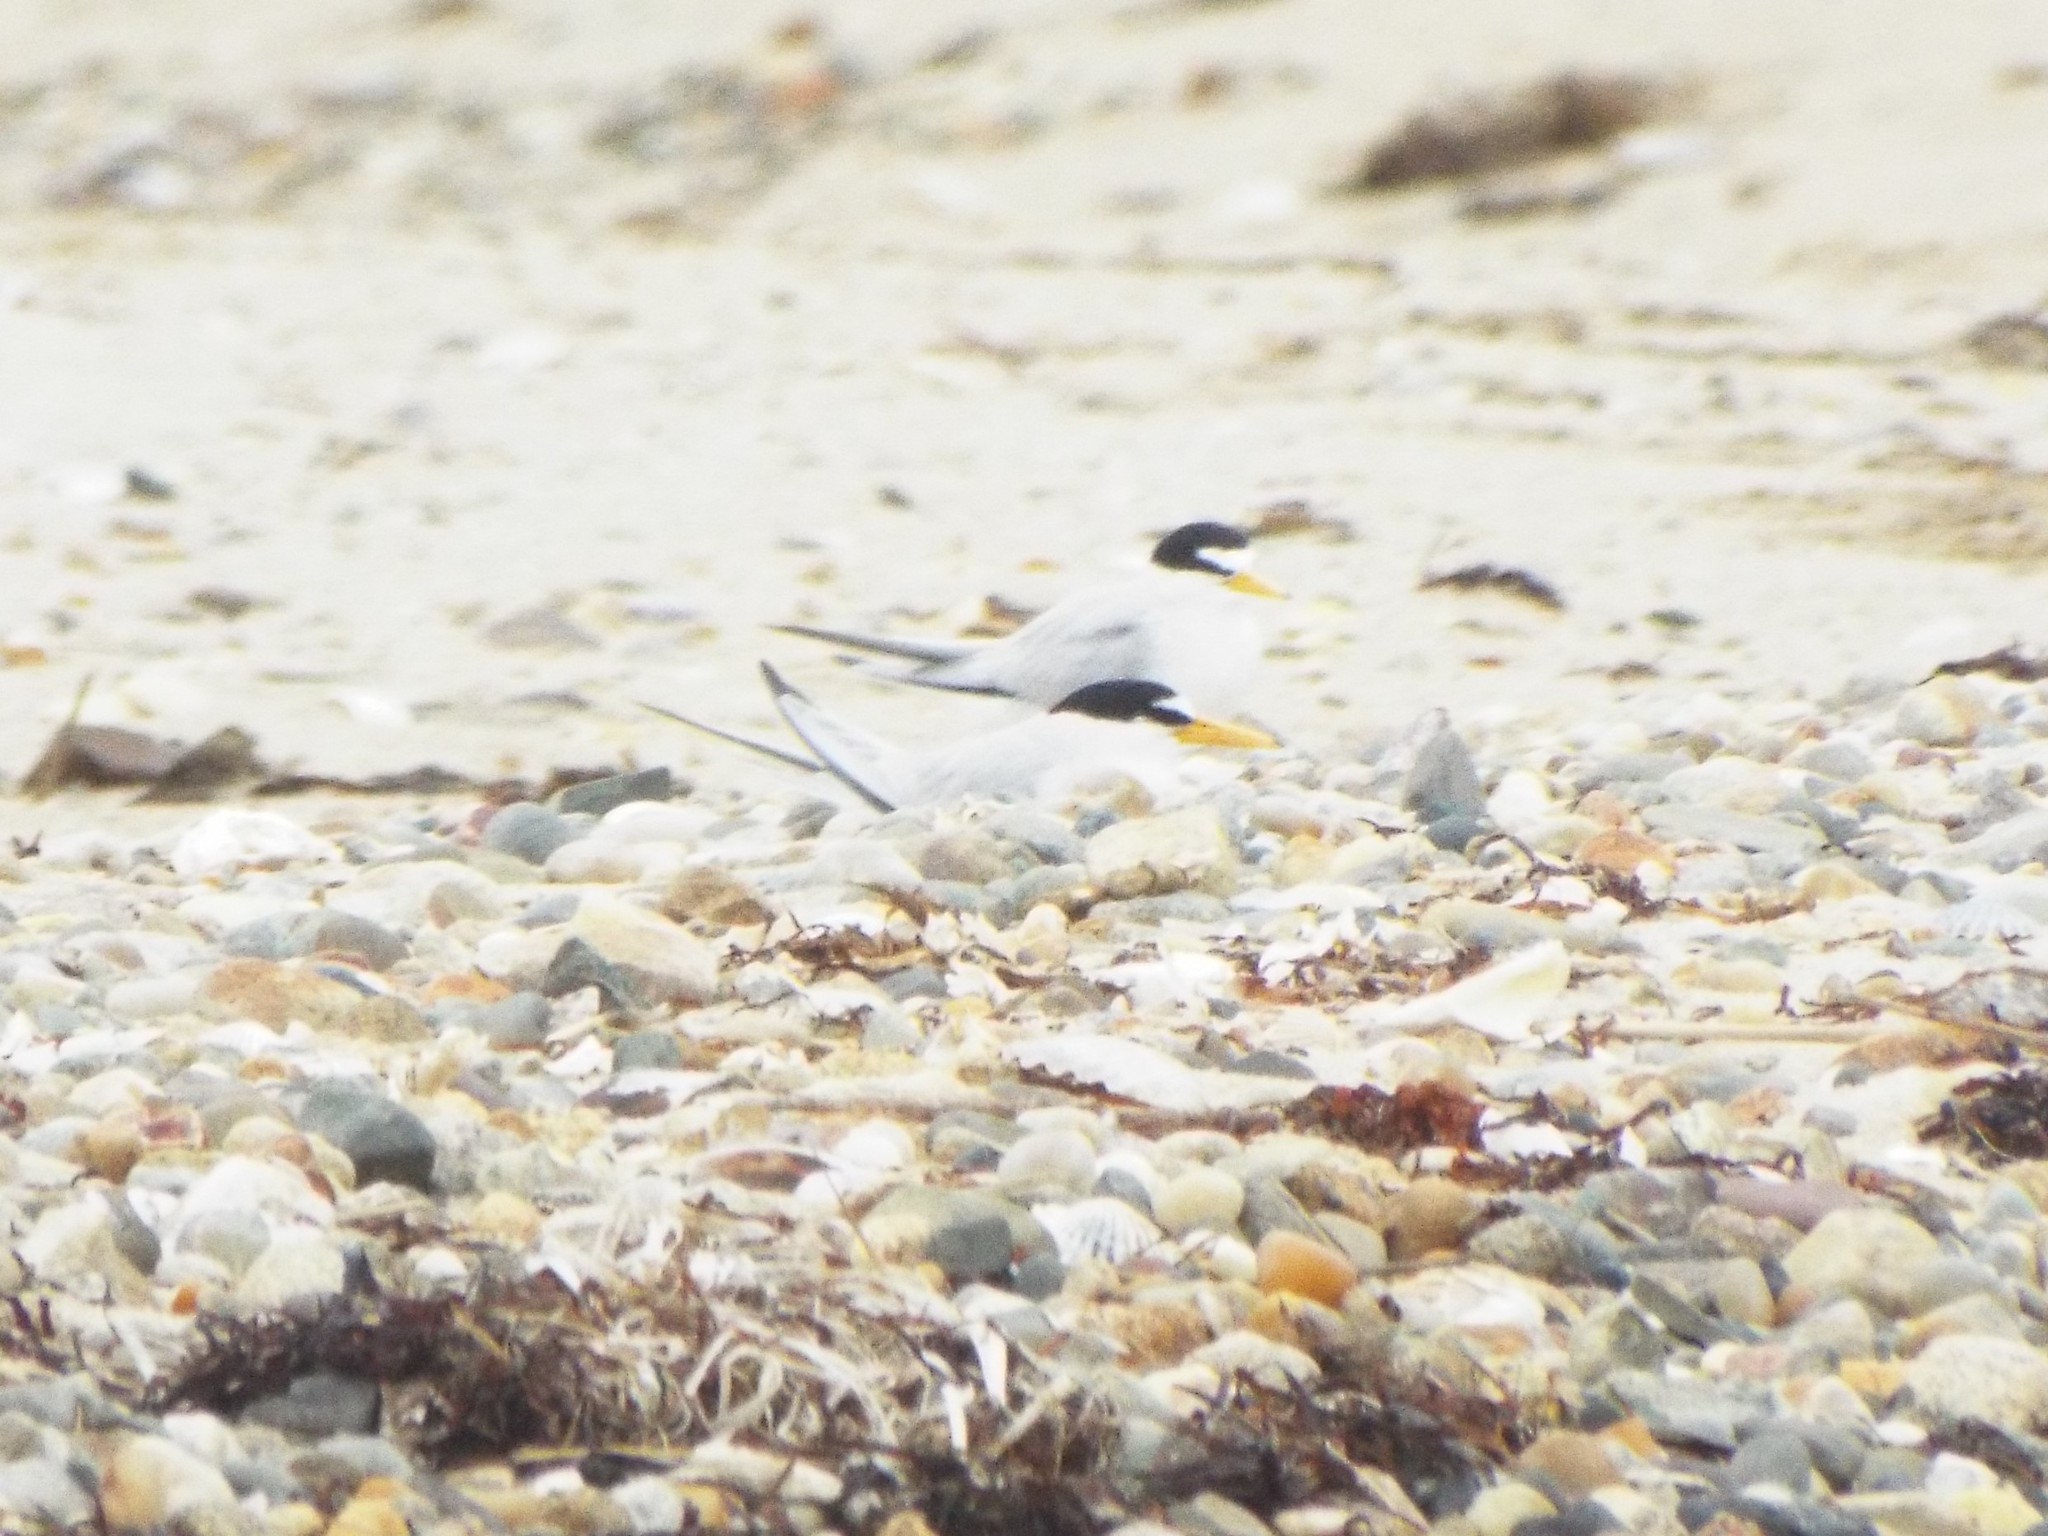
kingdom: Animalia
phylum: Chordata
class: Aves
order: Charadriiformes
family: Laridae
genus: Sternula
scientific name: Sternula antillarum
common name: Least tern
